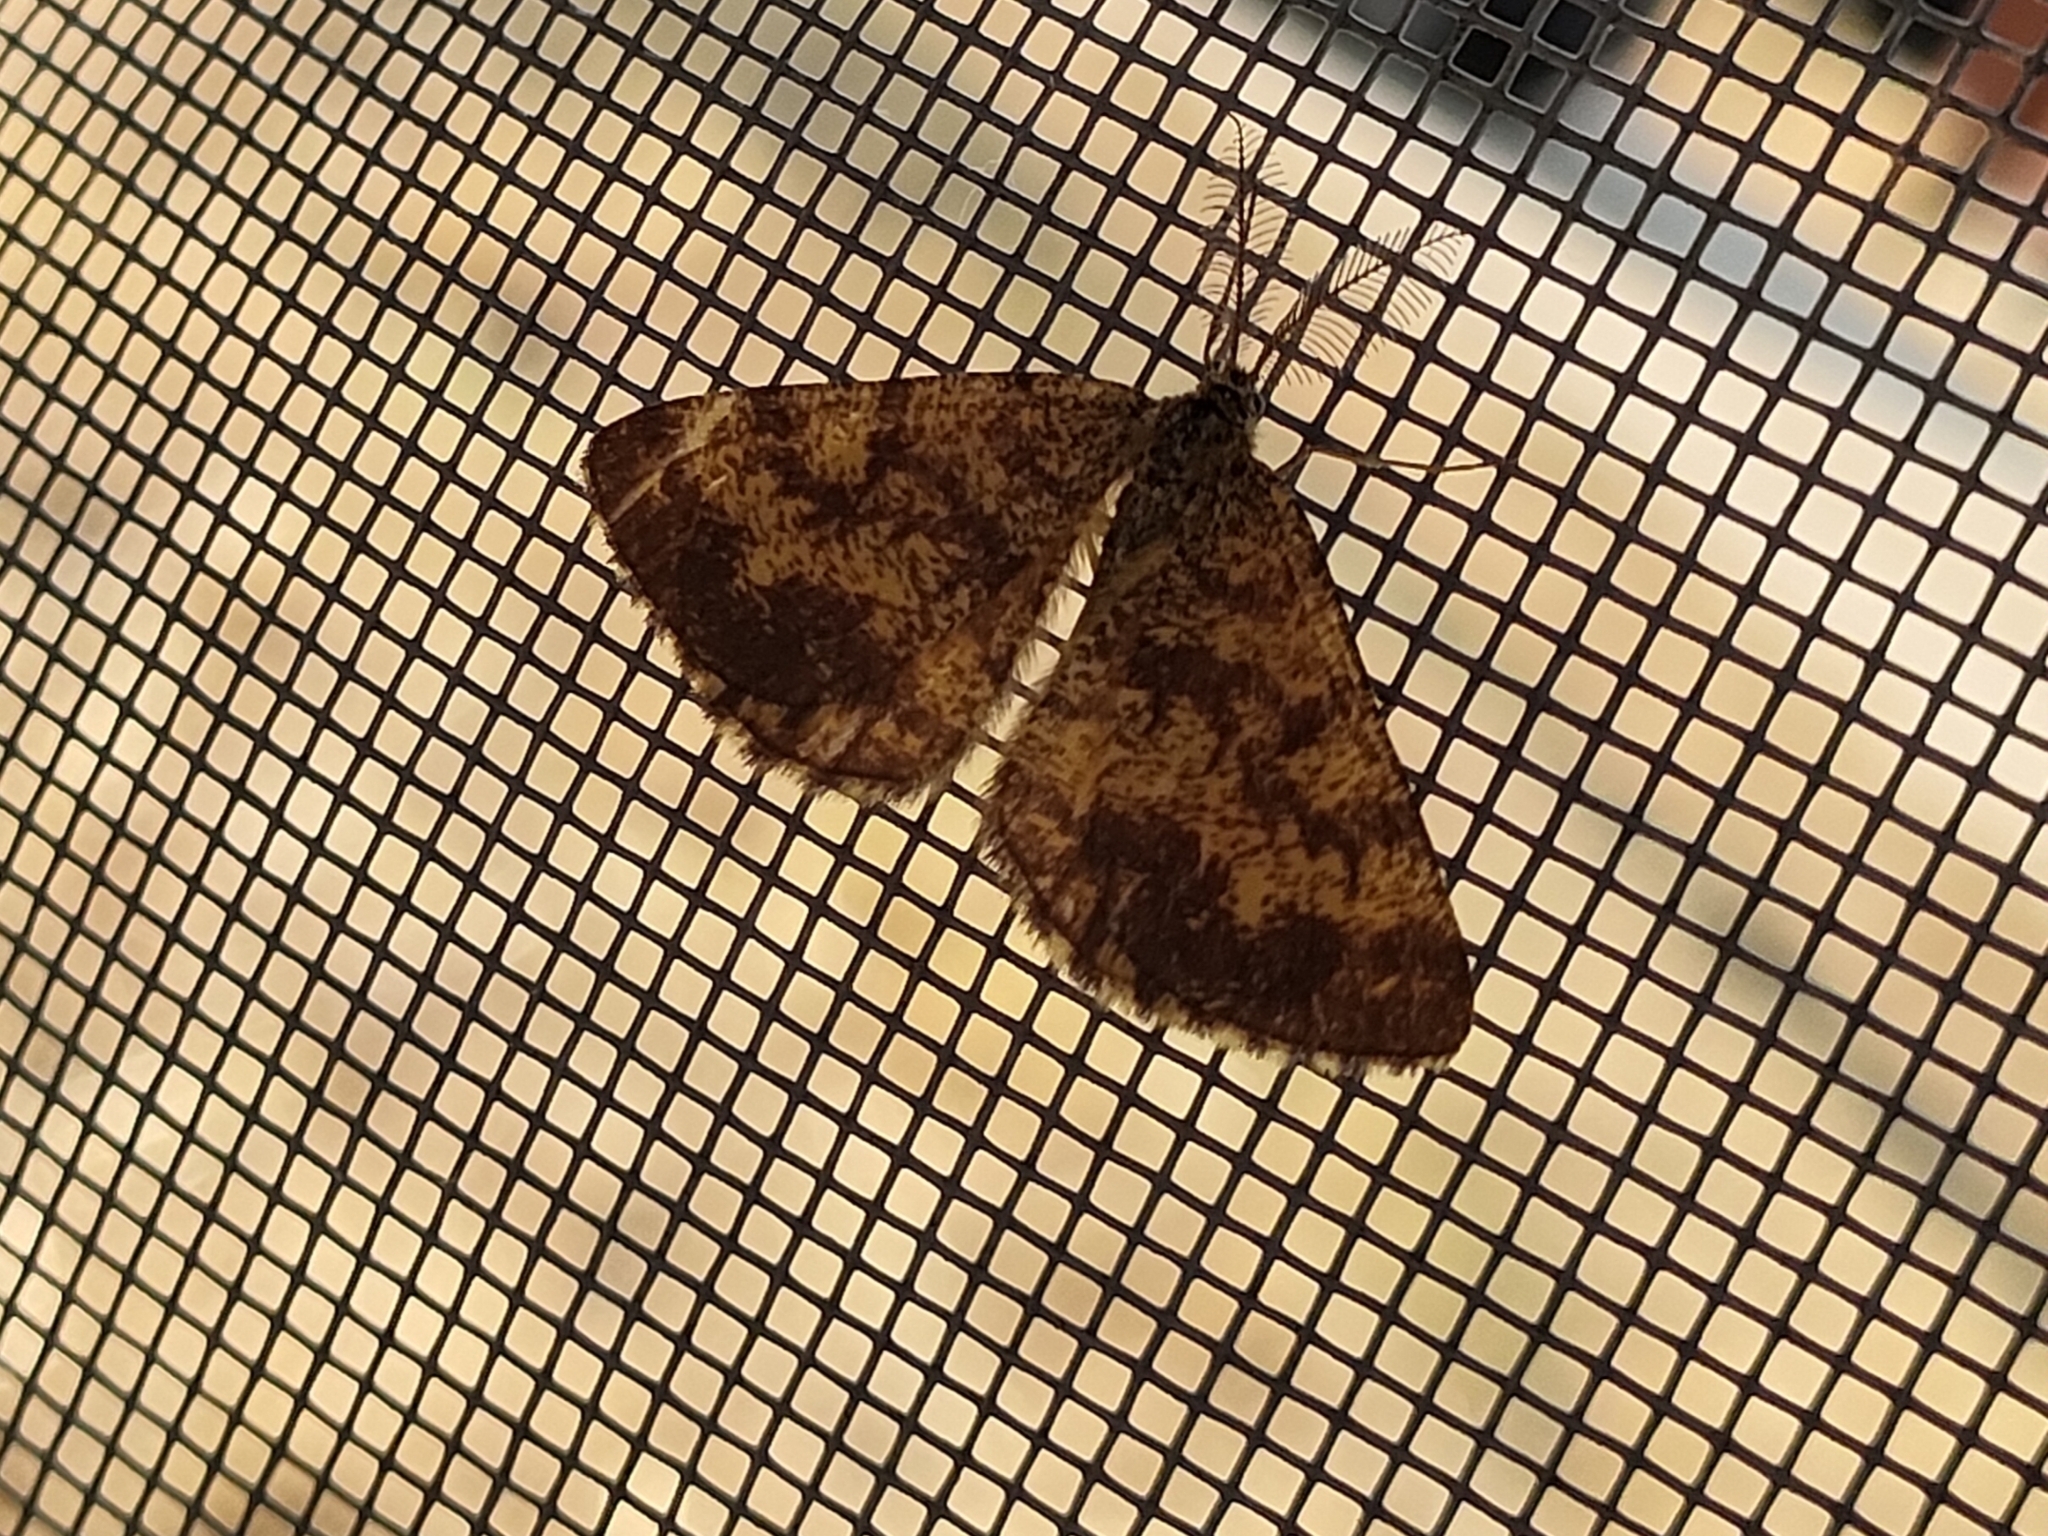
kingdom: Animalia
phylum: Arthropoda
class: Insecta
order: Lepidoptera
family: Geometridae
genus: Ematurga
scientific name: Ematurga atomaria
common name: Common heath
